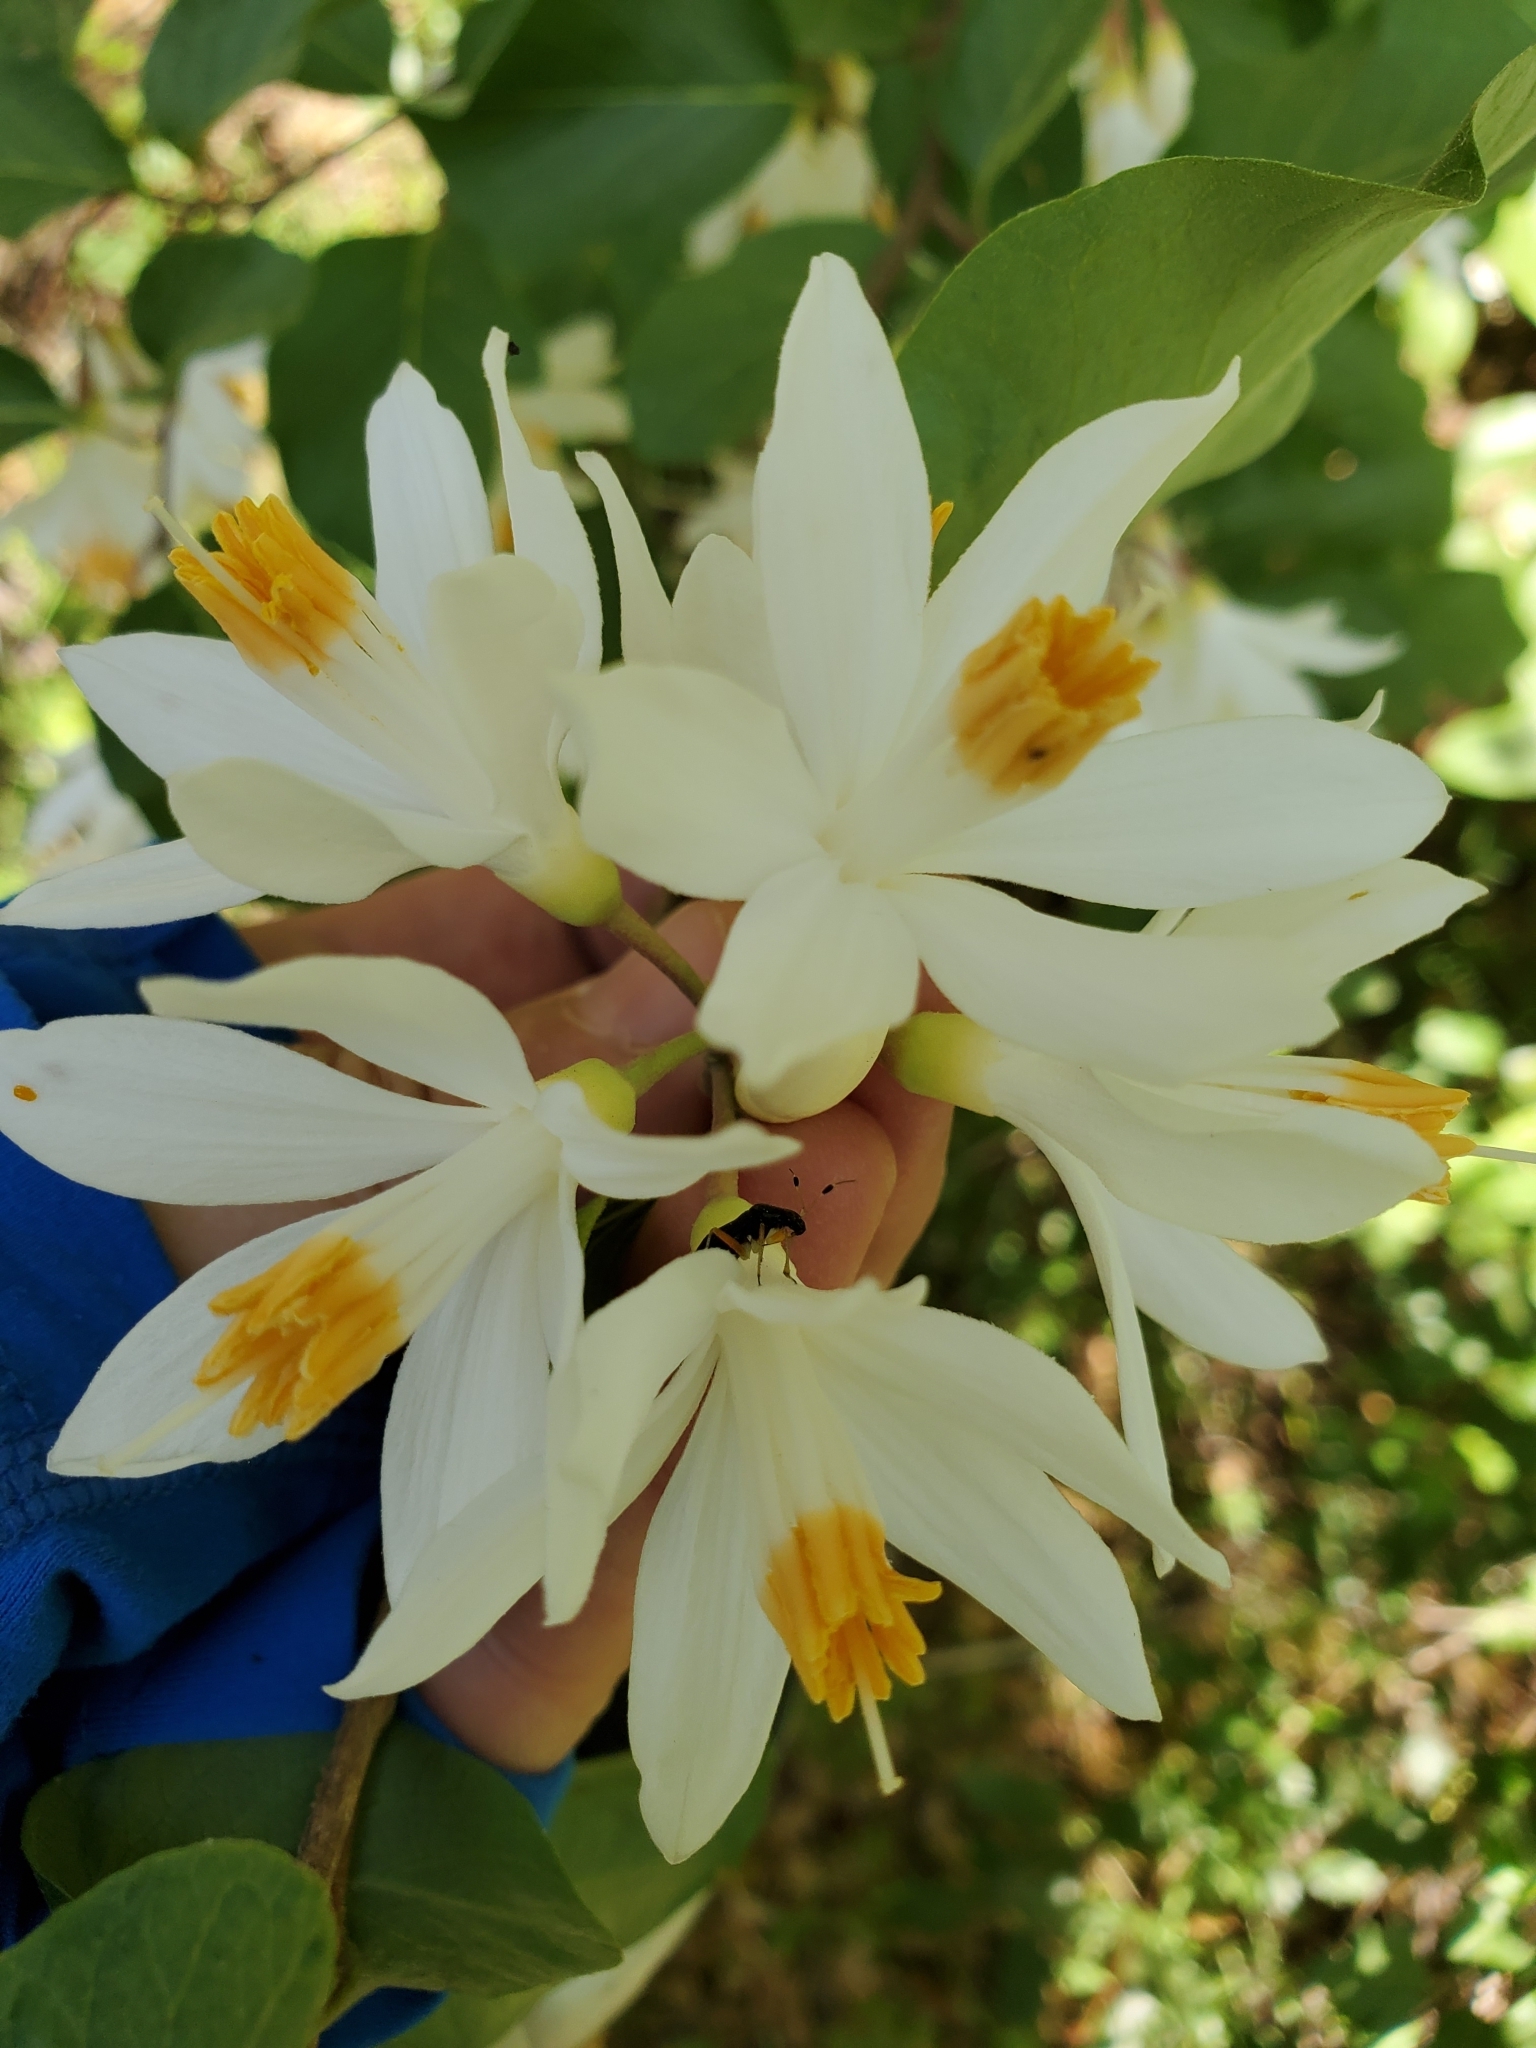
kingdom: Plantae
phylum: Tracheophyta
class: Magnoliopsida
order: Ericales
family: Styracaceae
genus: Styrax
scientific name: Styrax redivivus
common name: California styrax
